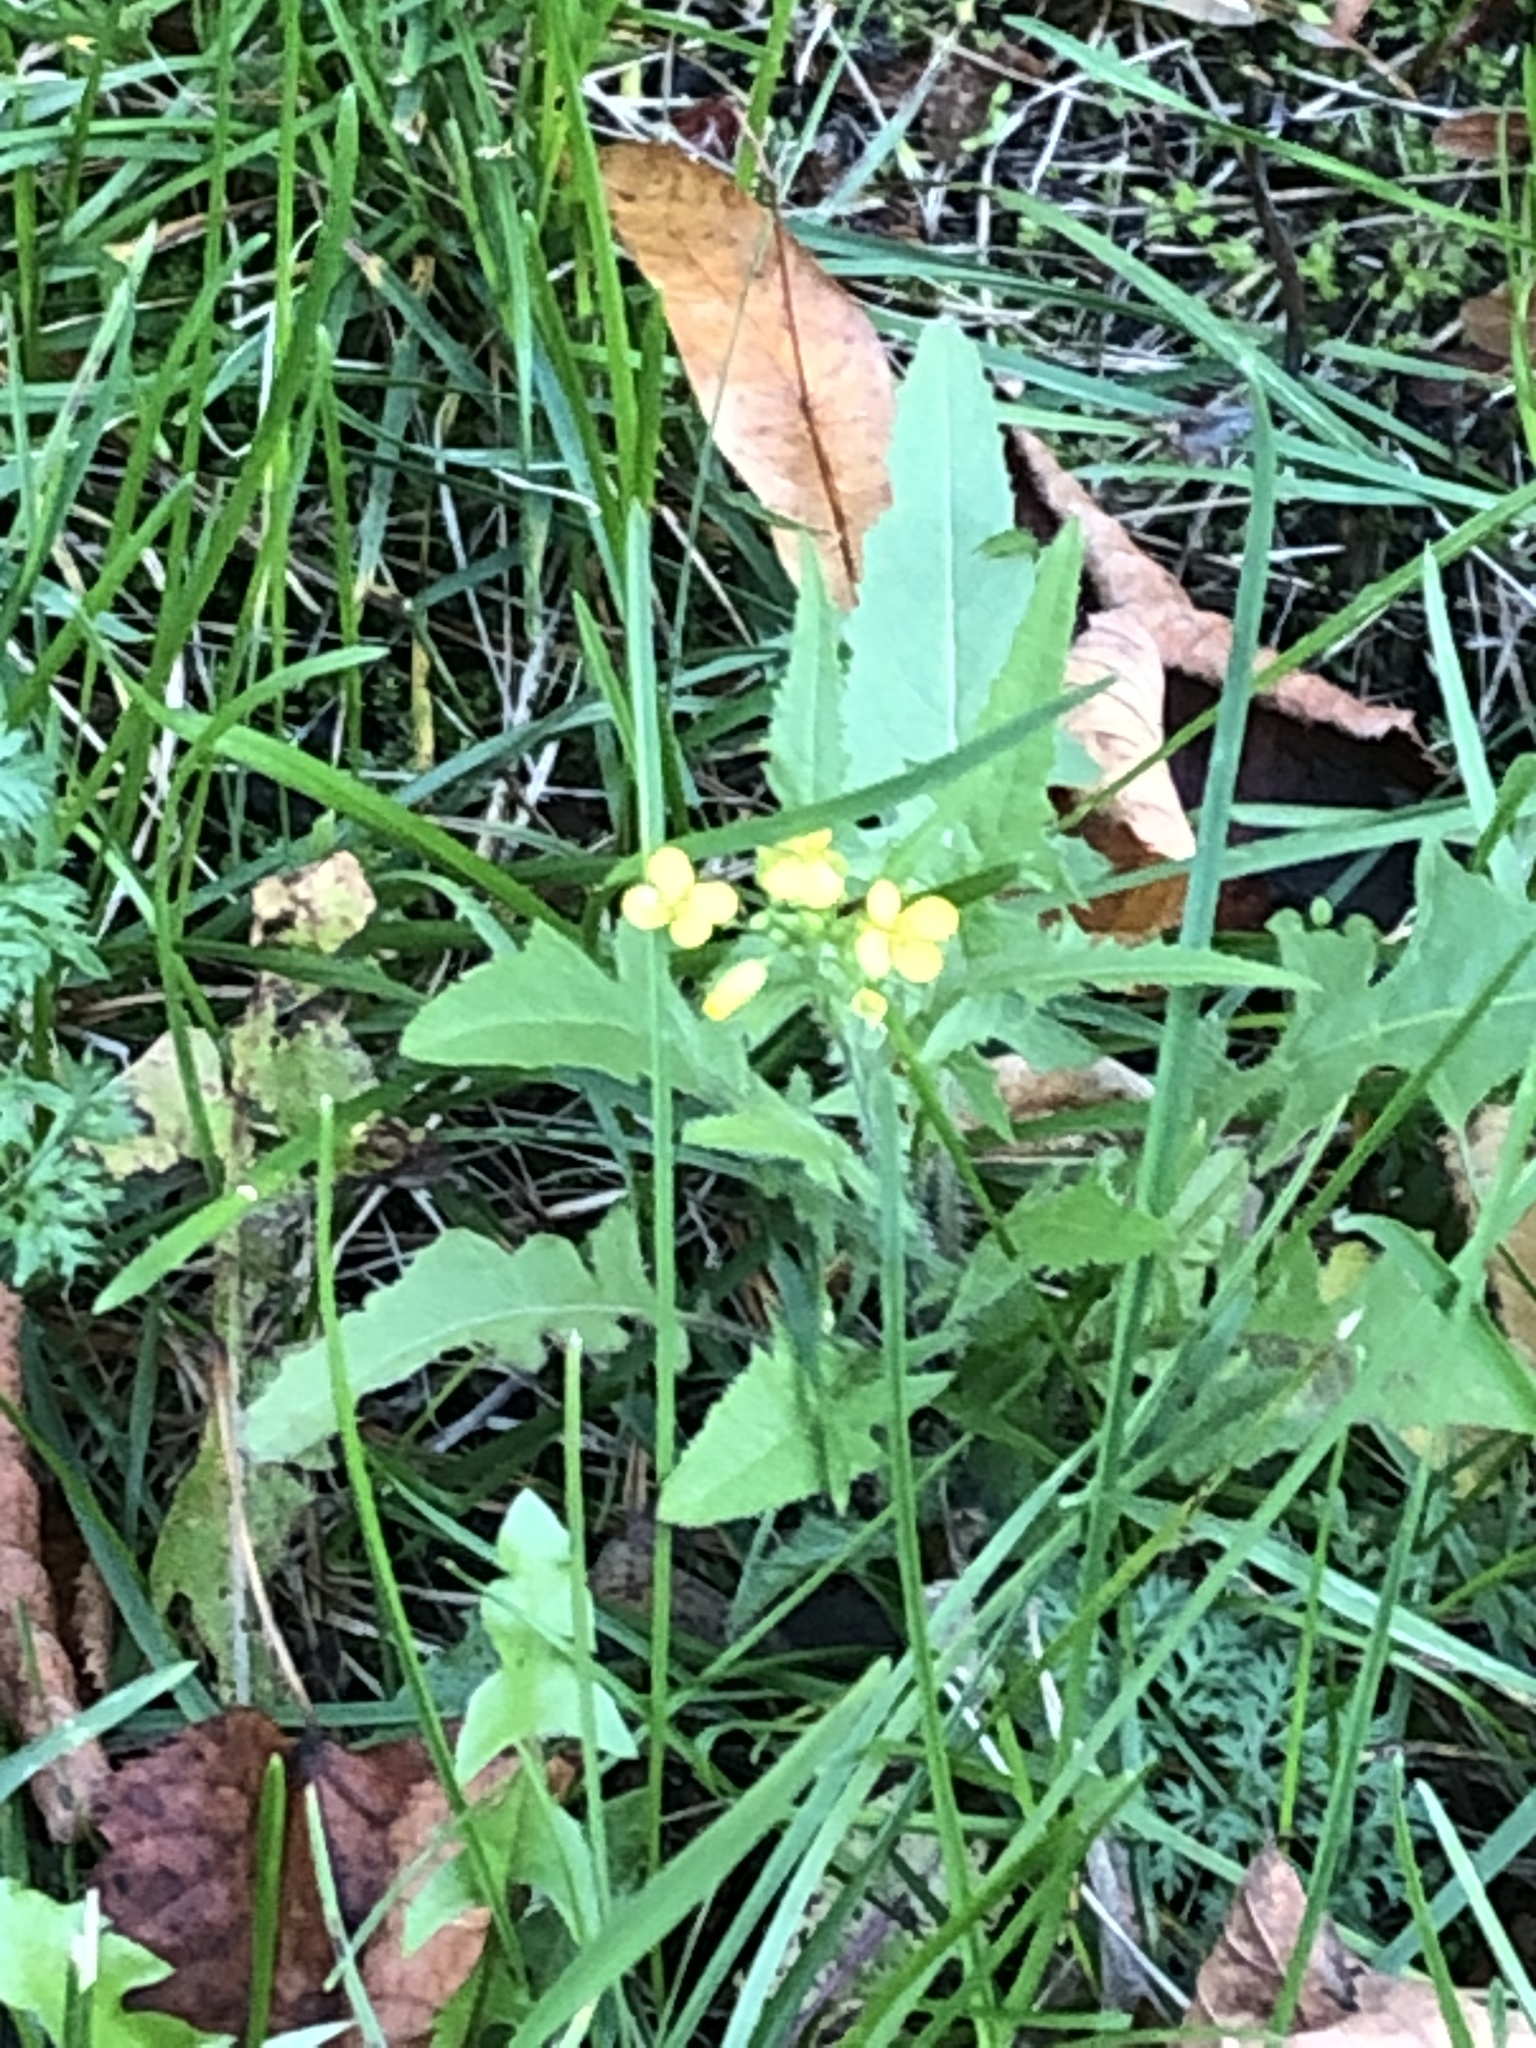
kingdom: Plantae
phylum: Tracheophyta
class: Magnoliopsida
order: Brassicales
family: Brassicaceae
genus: Sisymbrium
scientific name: Sisymbrium loeselii
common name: False london-rocket
